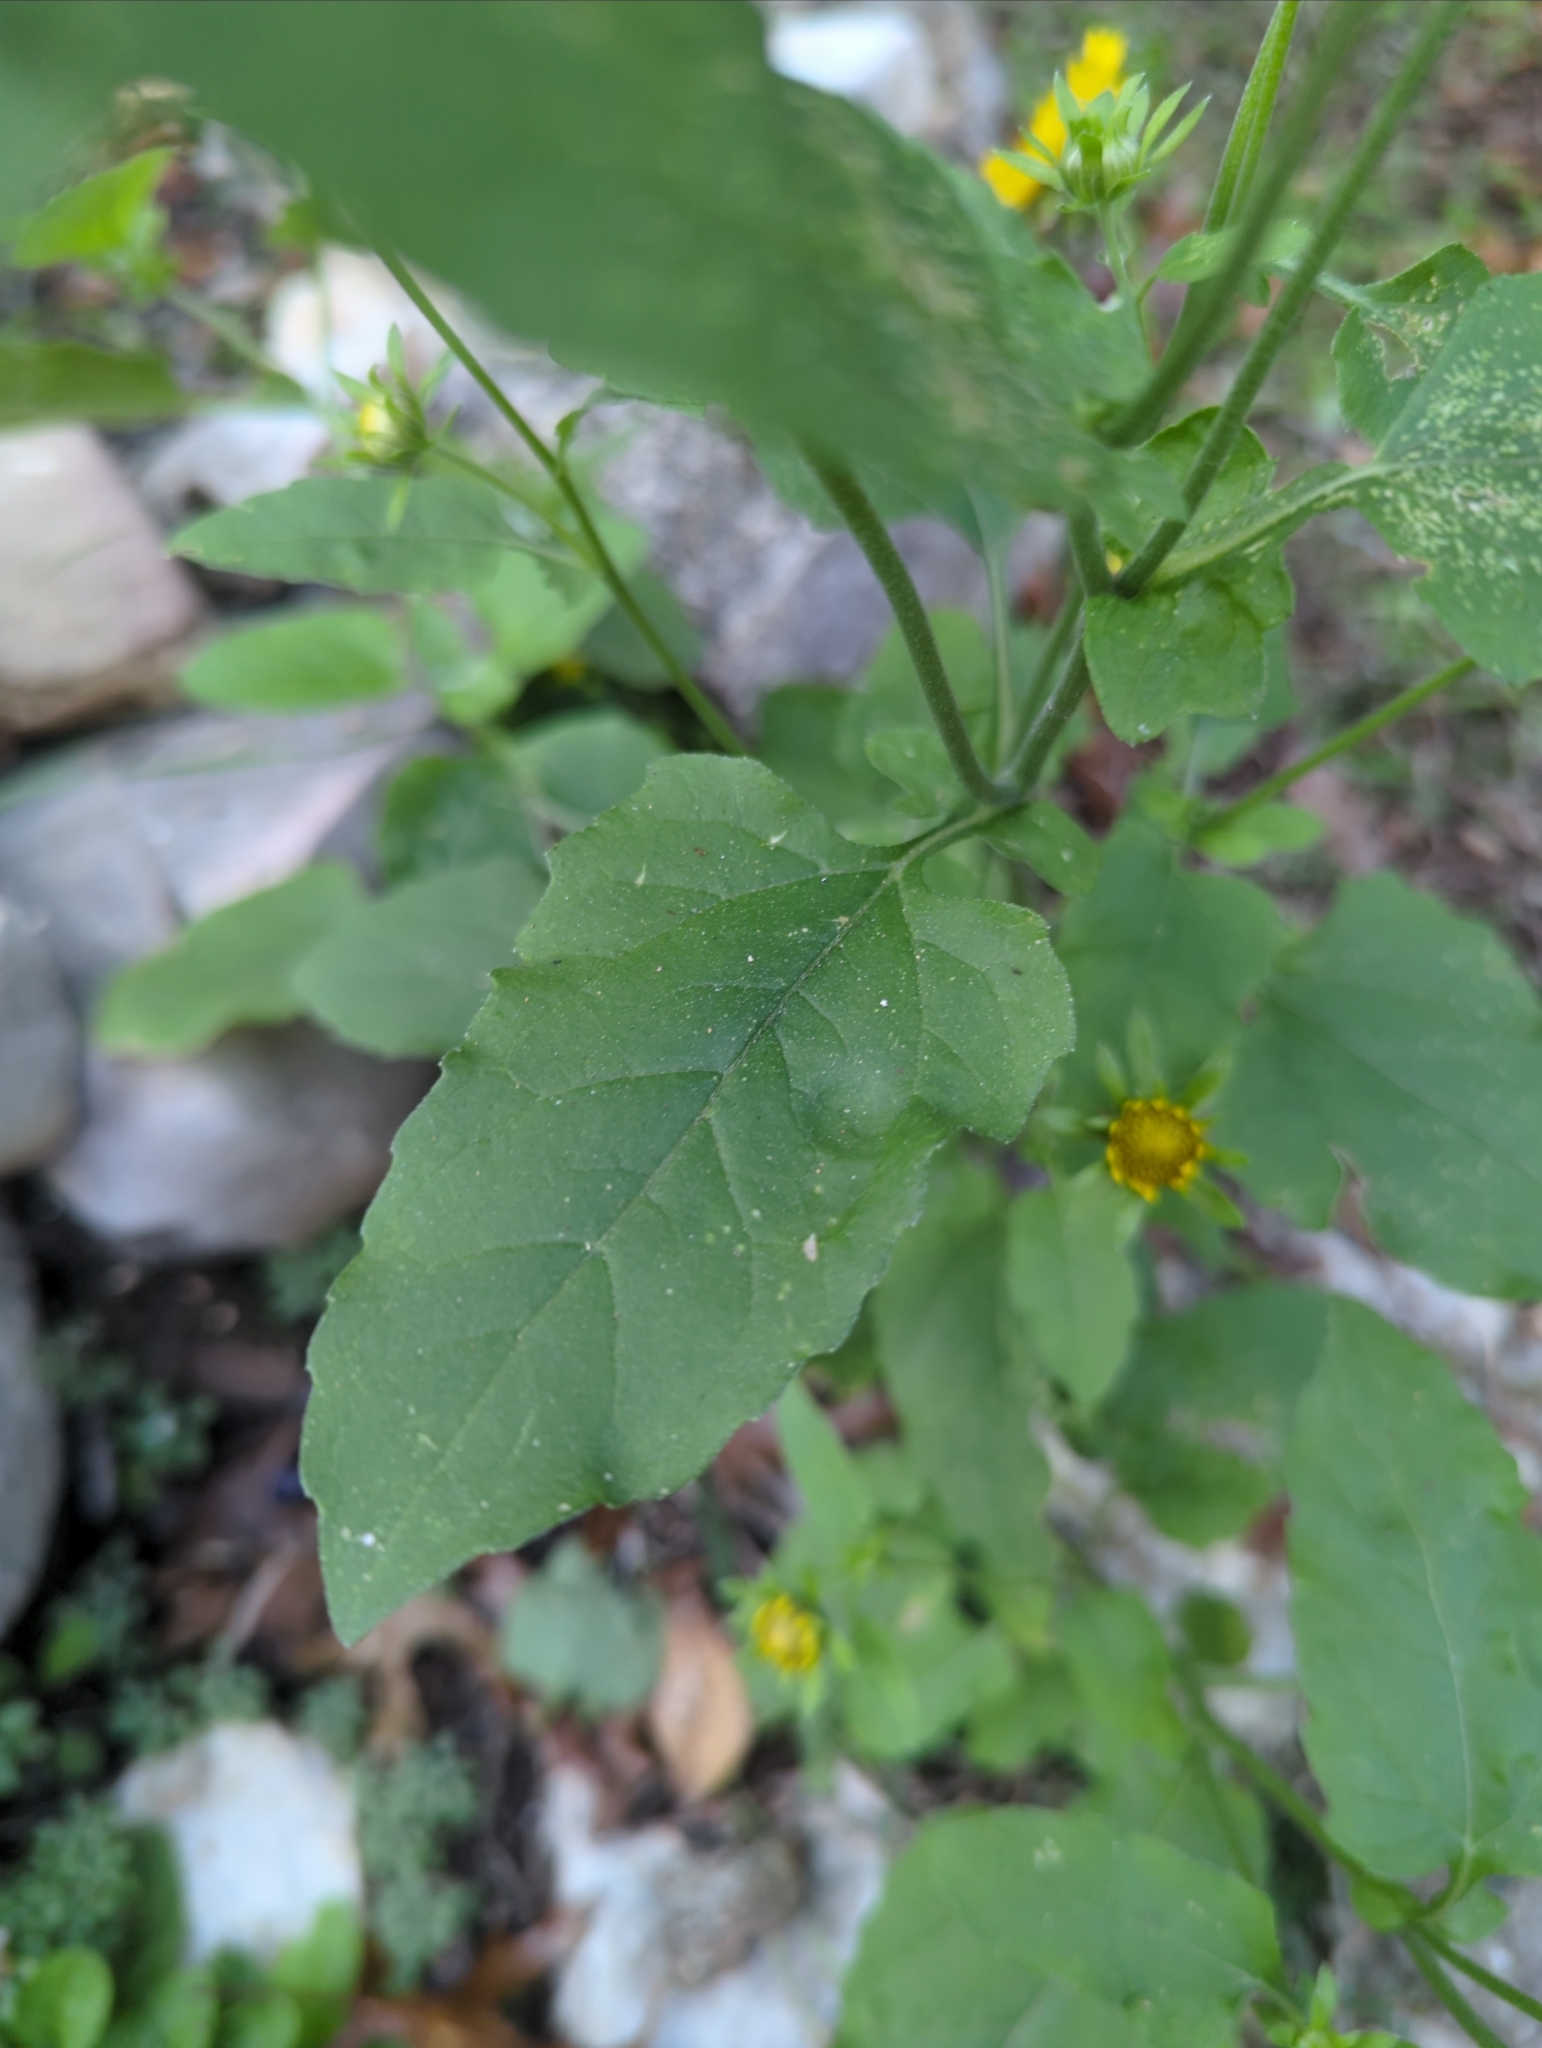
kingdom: Plantae
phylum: Tracheophyta
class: Magnoliopsida
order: Asterales
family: Asteraceae
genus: Verbesina
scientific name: Verbesina encelioides
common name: Golden crownbeard
